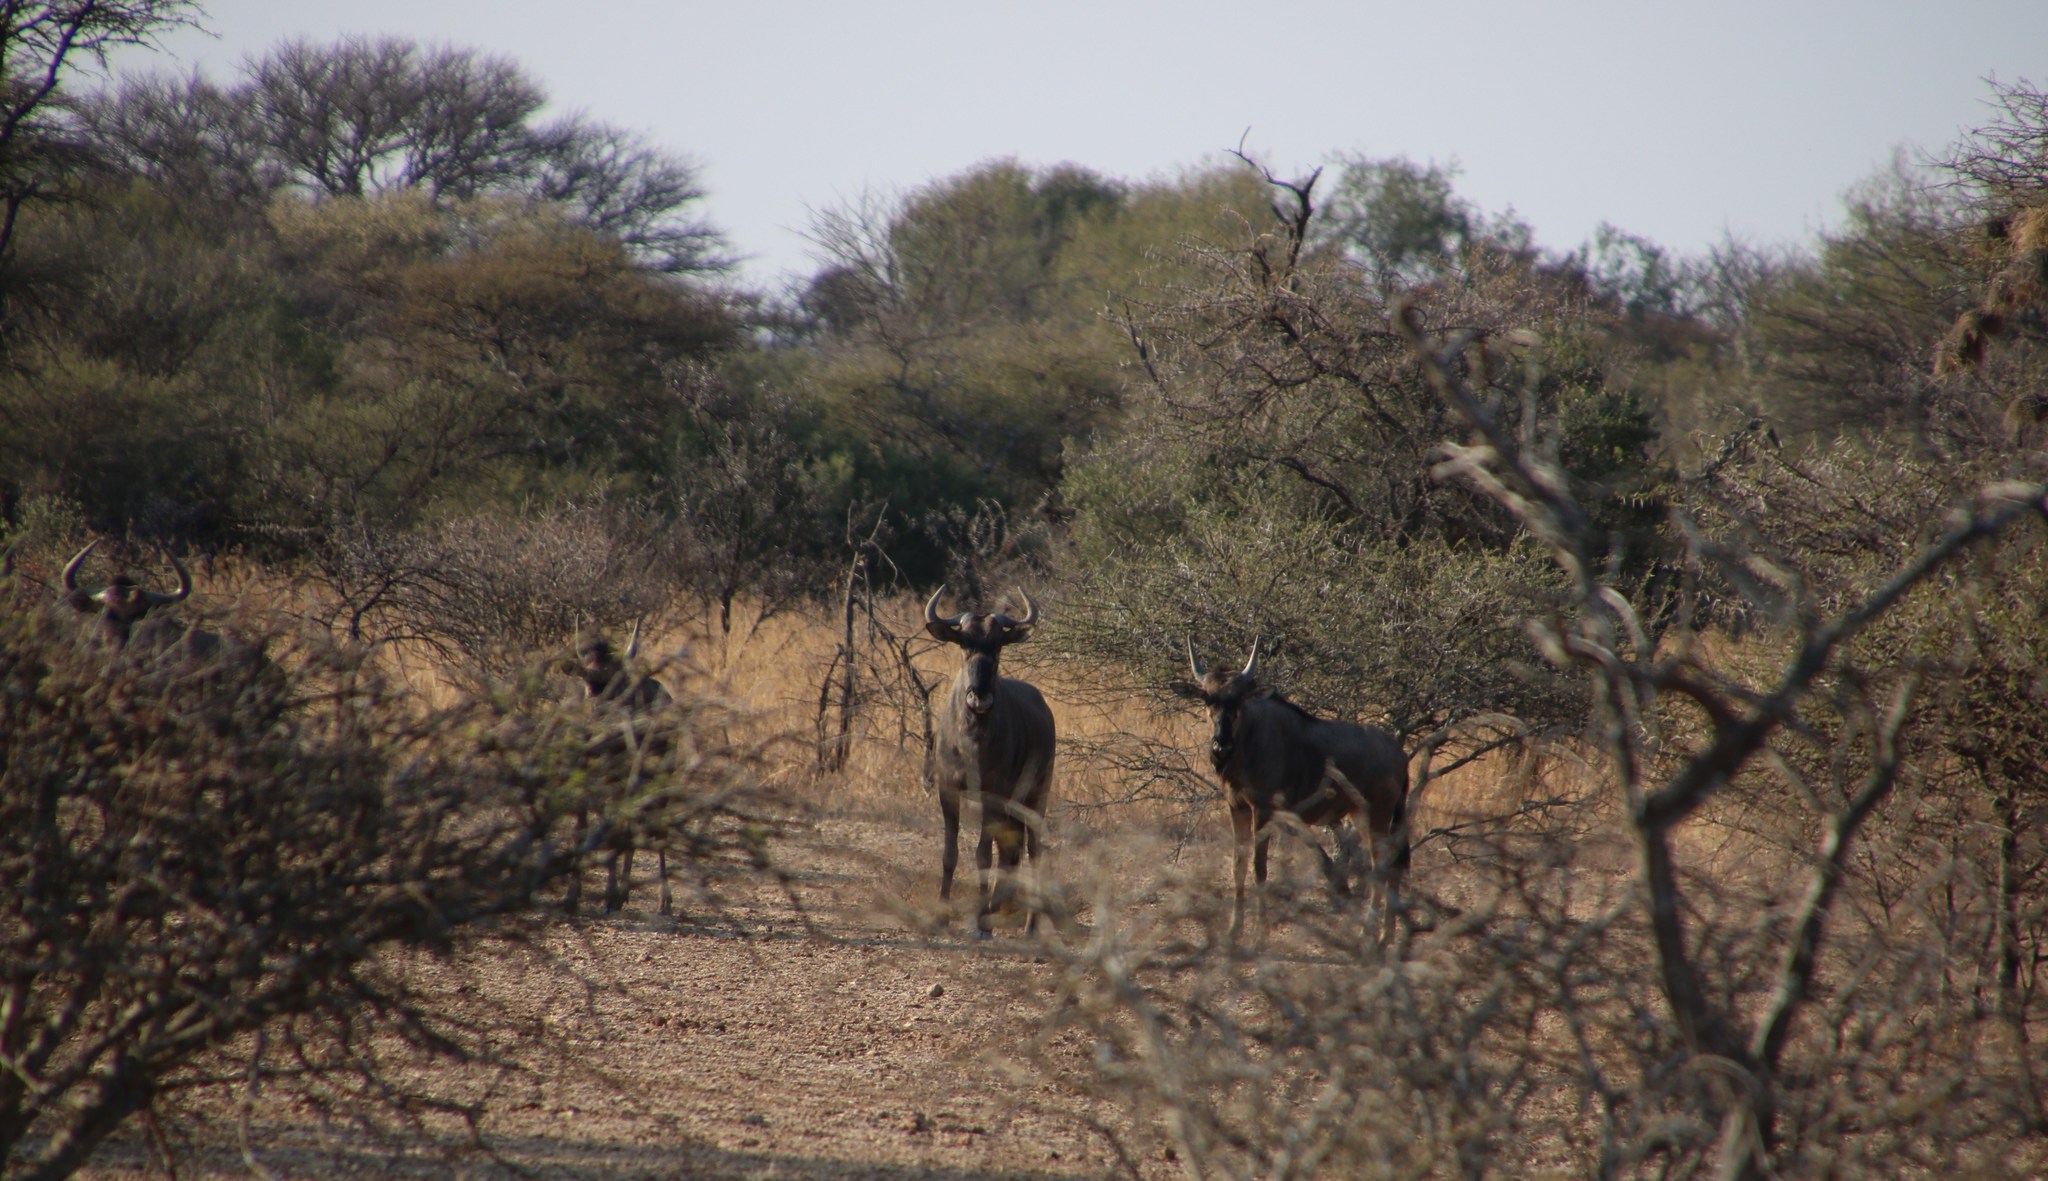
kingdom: Animalia
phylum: Chordata
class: Mammalia
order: Artiodactyla
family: Bovidae
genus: Connochaetes
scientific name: Connochaetes taurinus
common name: Blue wildebeest
